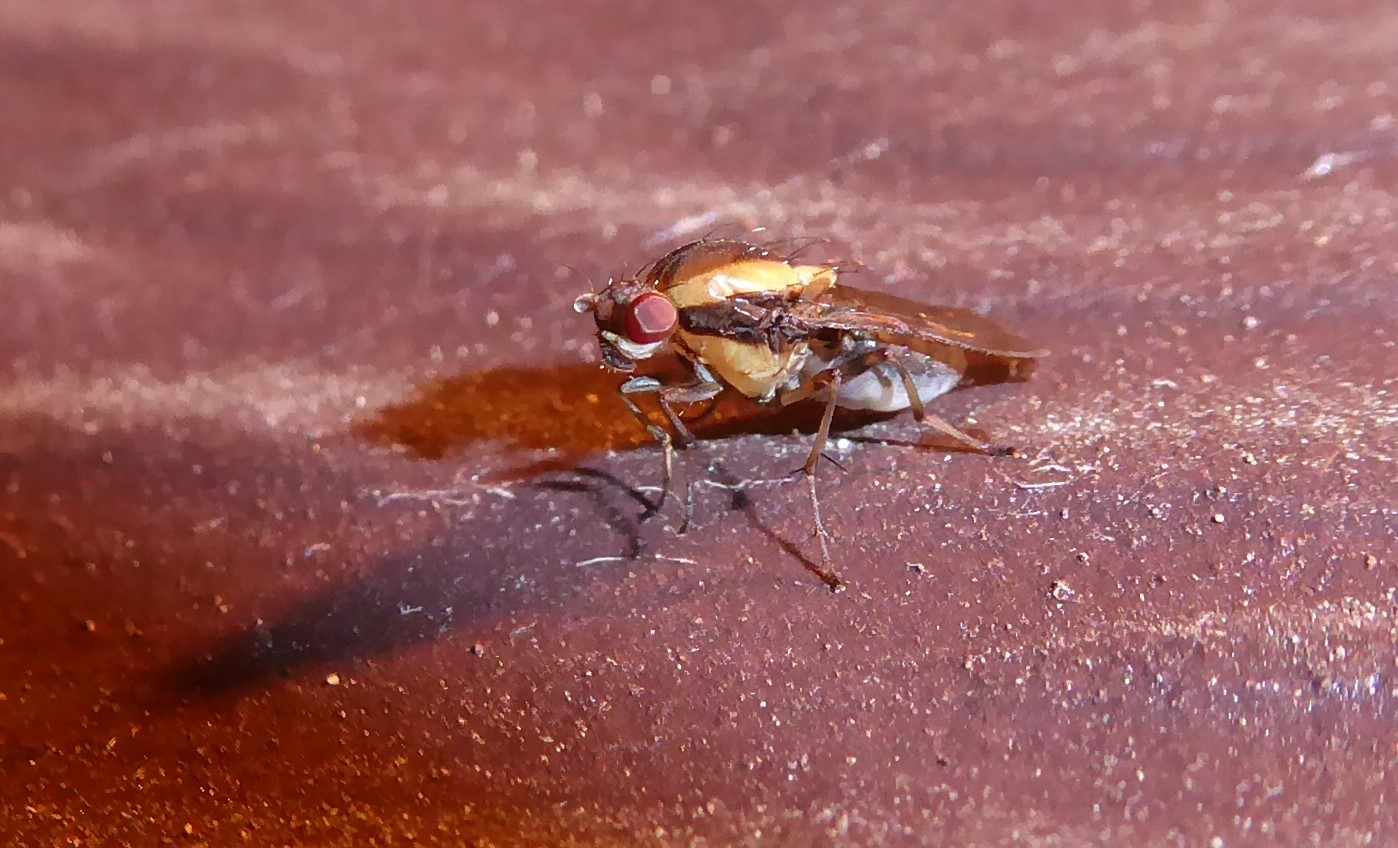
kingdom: Animalia
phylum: Arthropoda
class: Insecta
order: Diptera
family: Heleomyzidae
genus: Allophylopsis
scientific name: Allophylopsis scutellata
